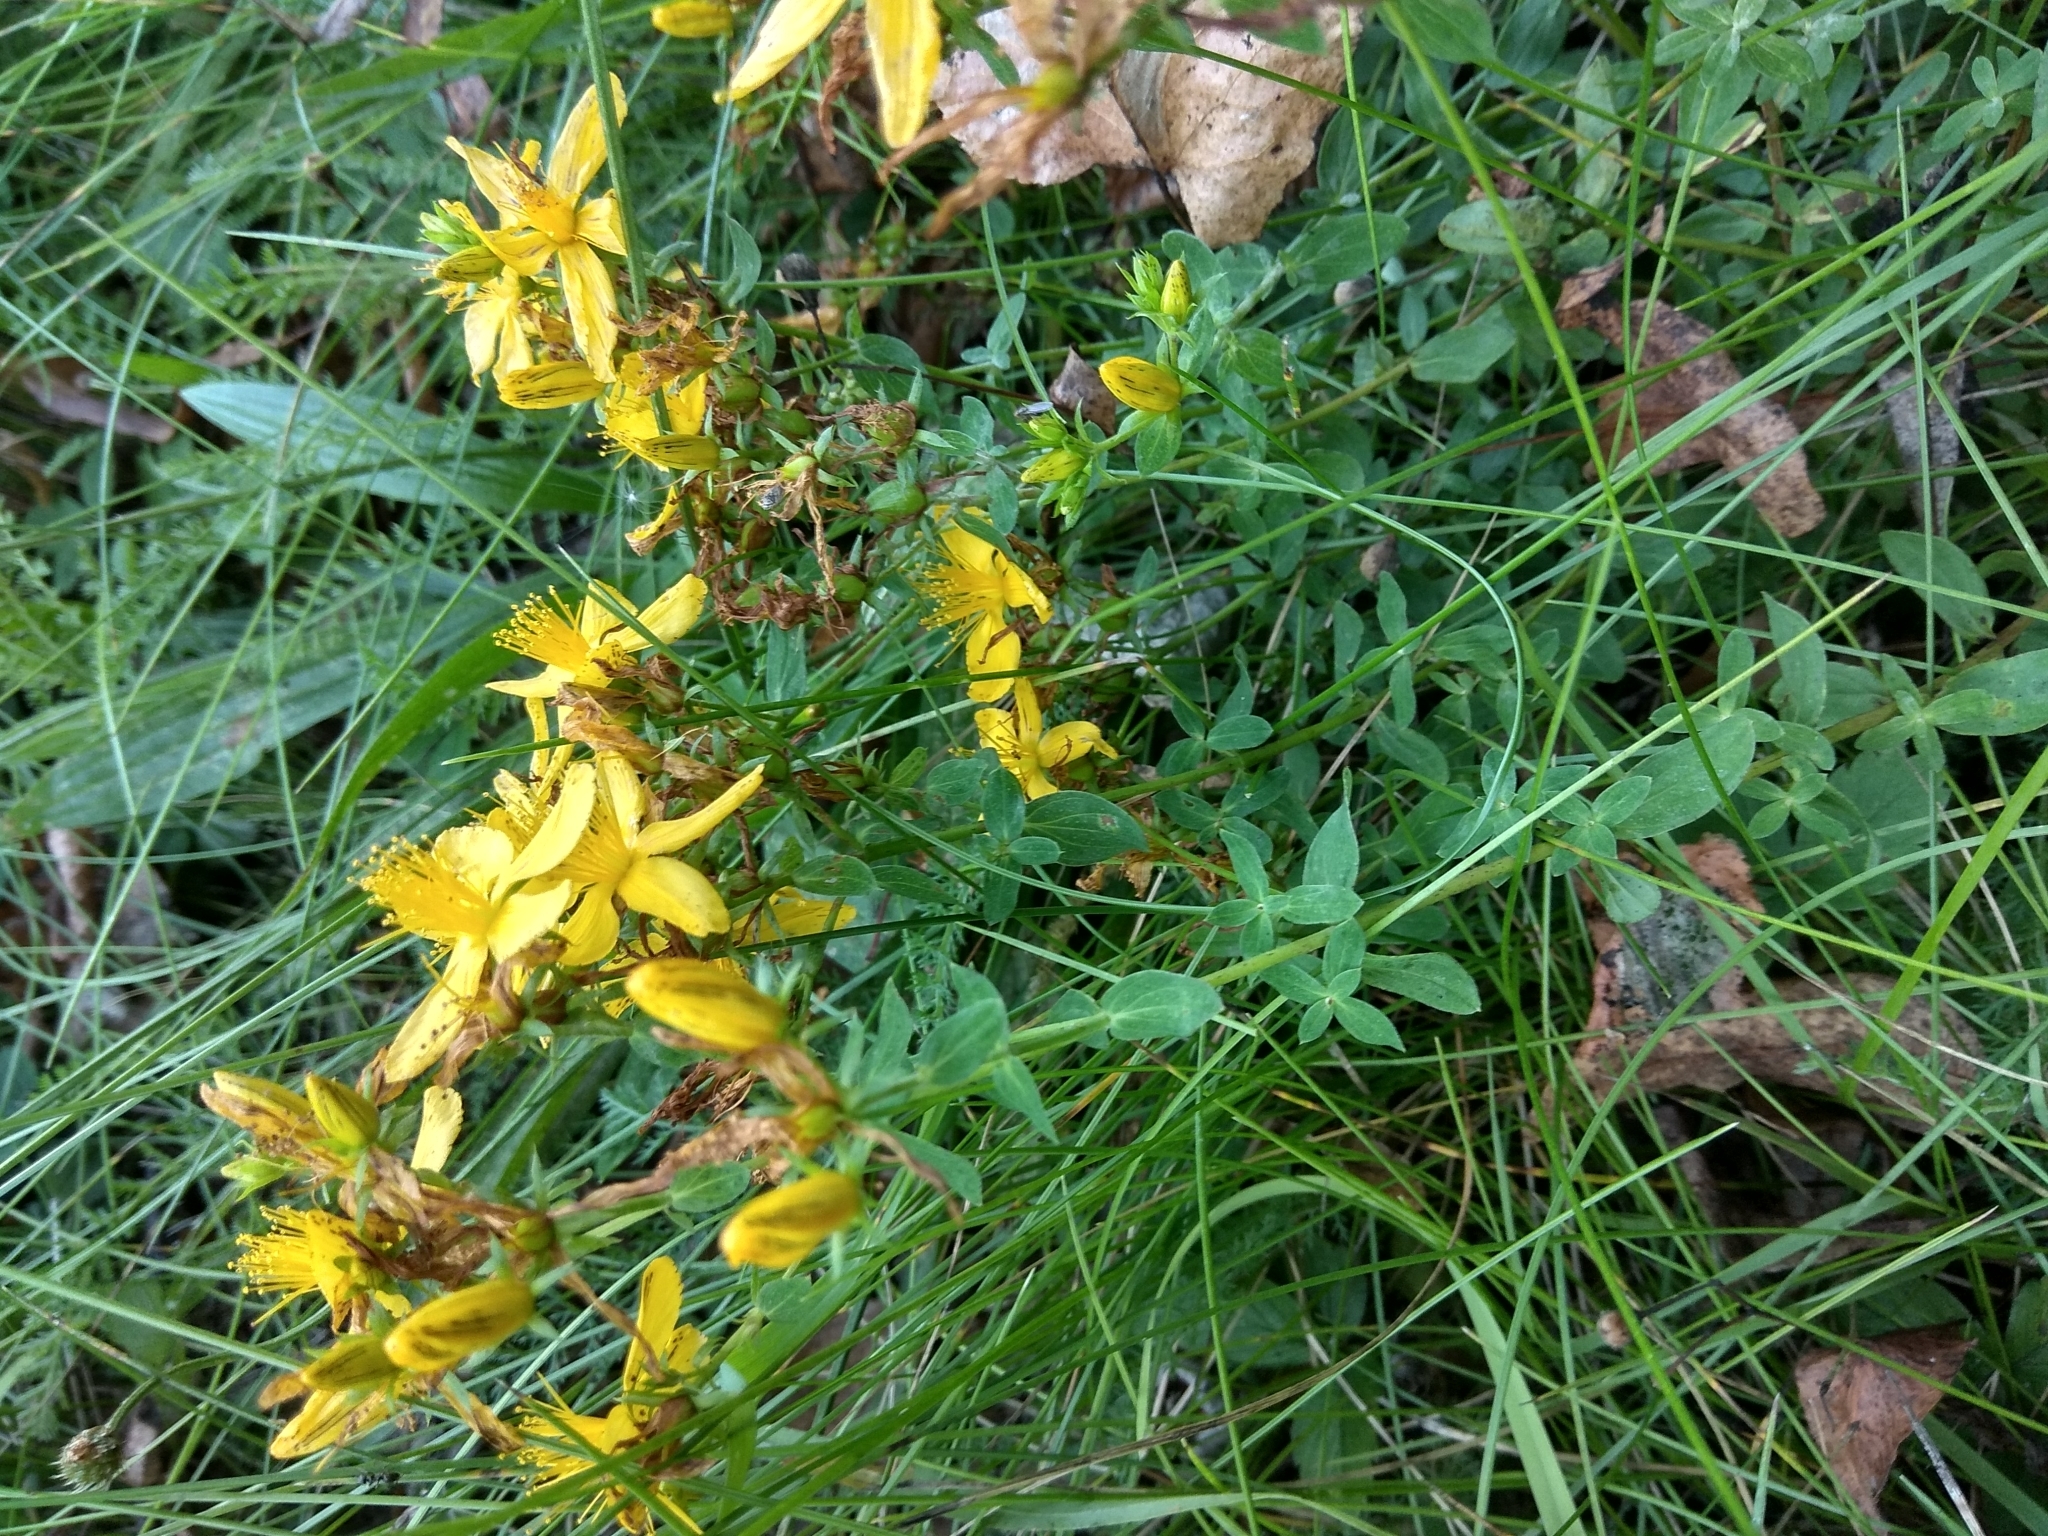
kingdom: Plantae
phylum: Tracheophyta
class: Magnoliopsida
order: Malpighiales
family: Hypericaceae
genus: Hypericum
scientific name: Hypericum perforatum
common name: Common st. johnswort
